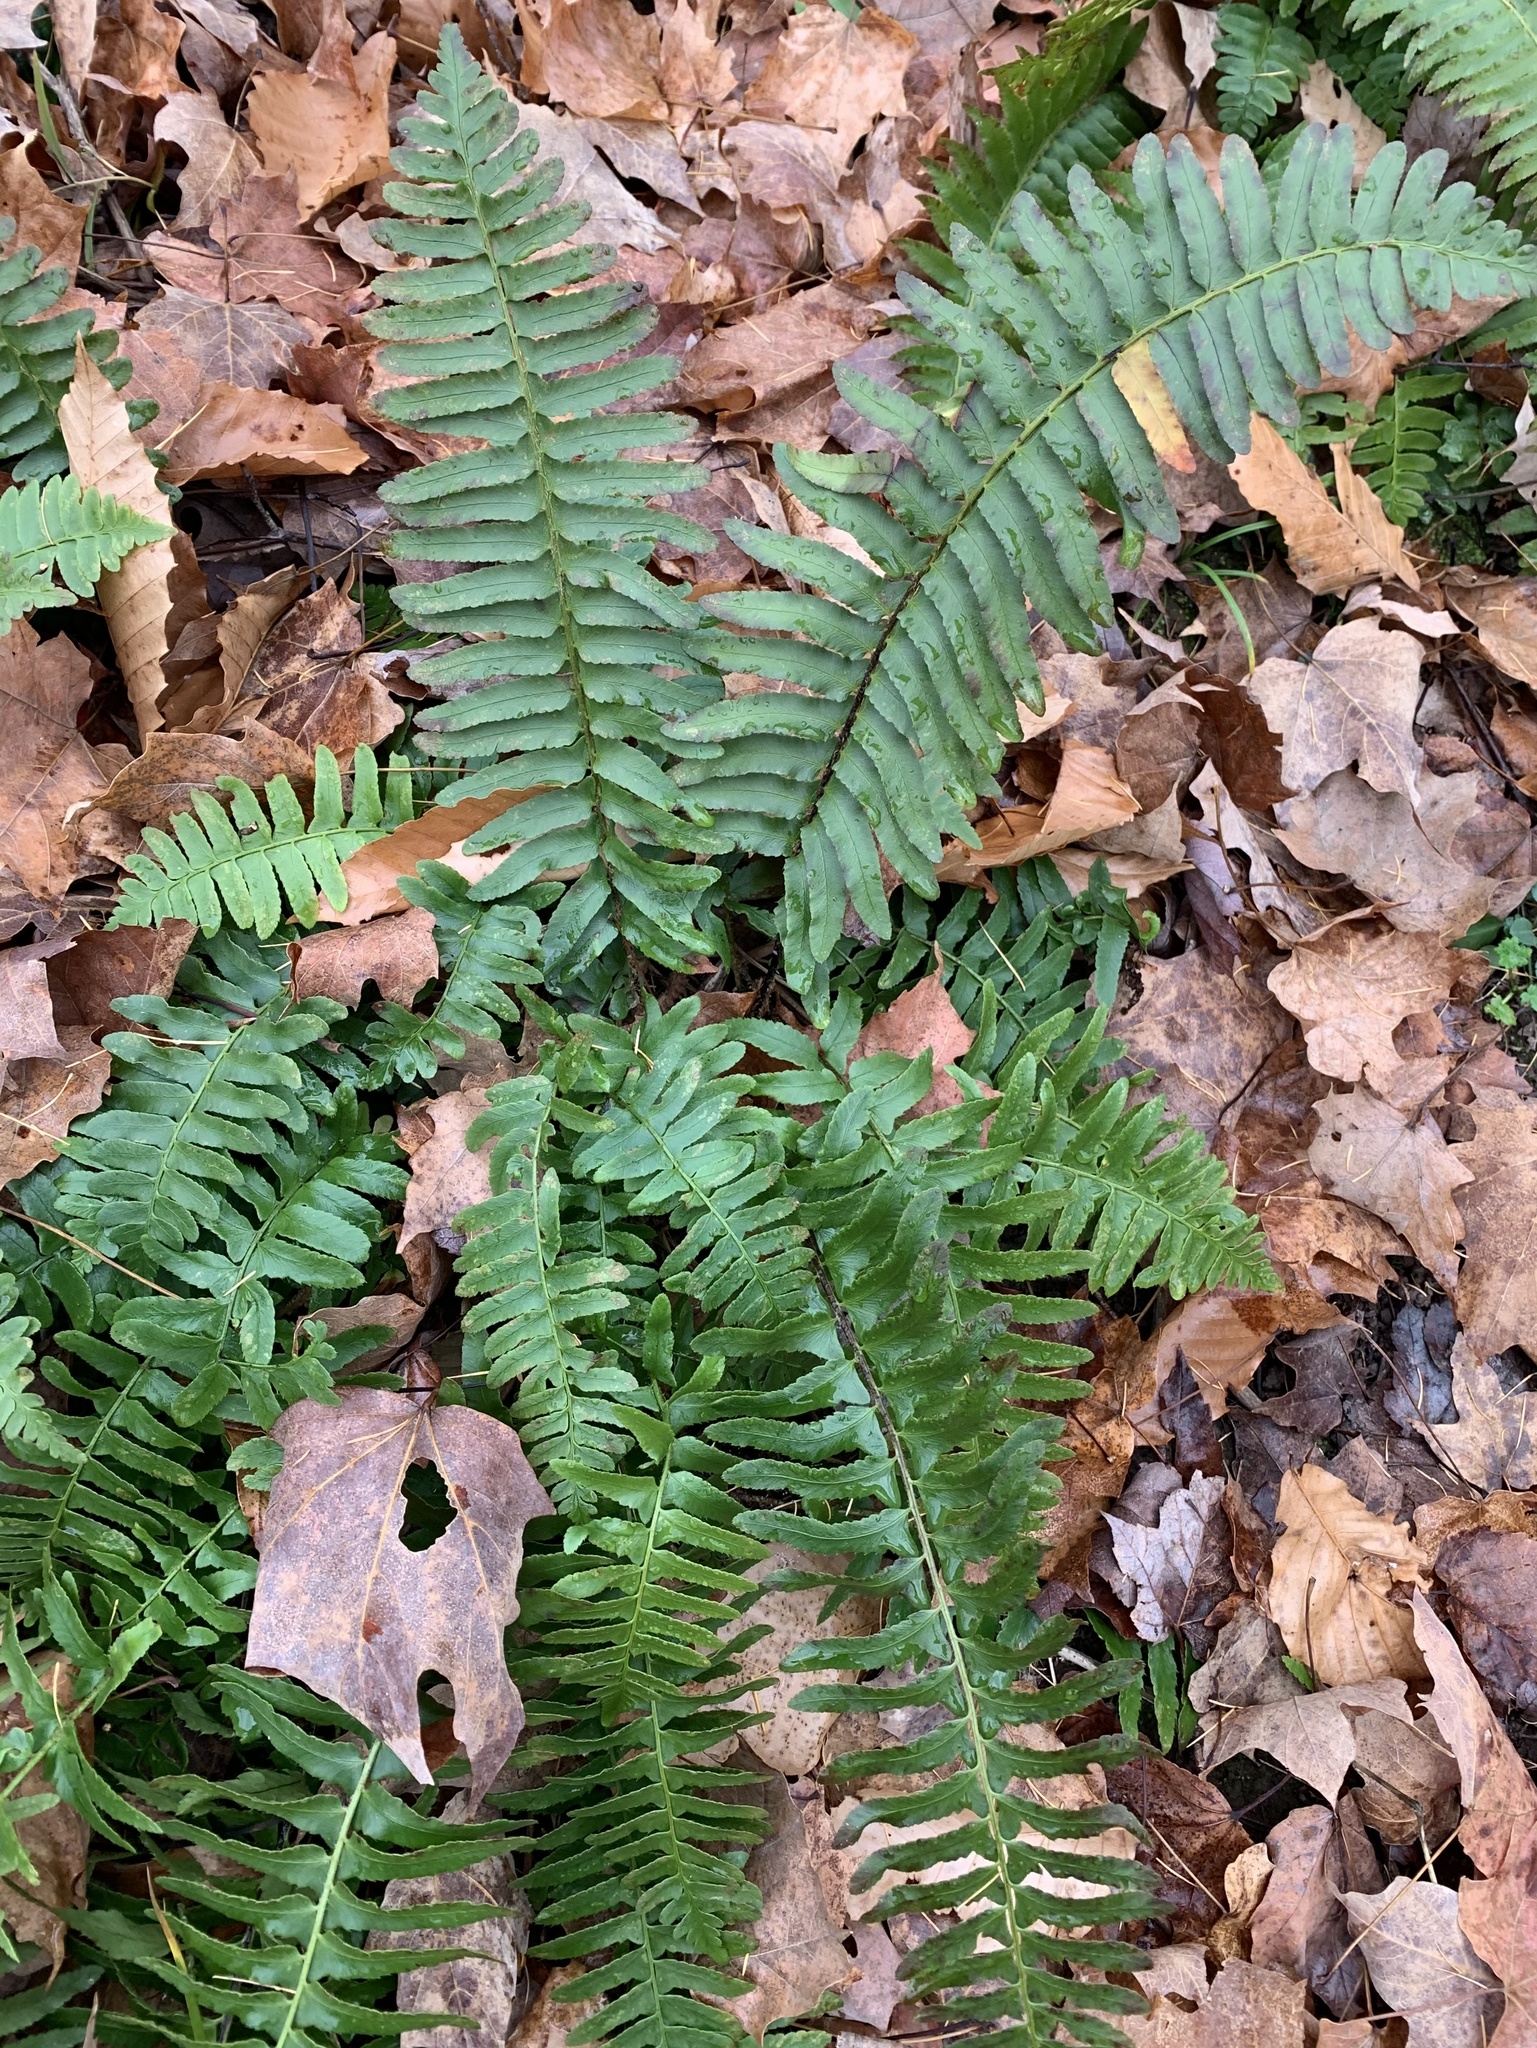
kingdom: Plantae
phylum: Tracheophyta
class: Polypodiopsida
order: Polypodiales
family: Dryopteridaceae
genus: Polystichum
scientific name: Polystichum acrostichoides
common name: Christmas fern
